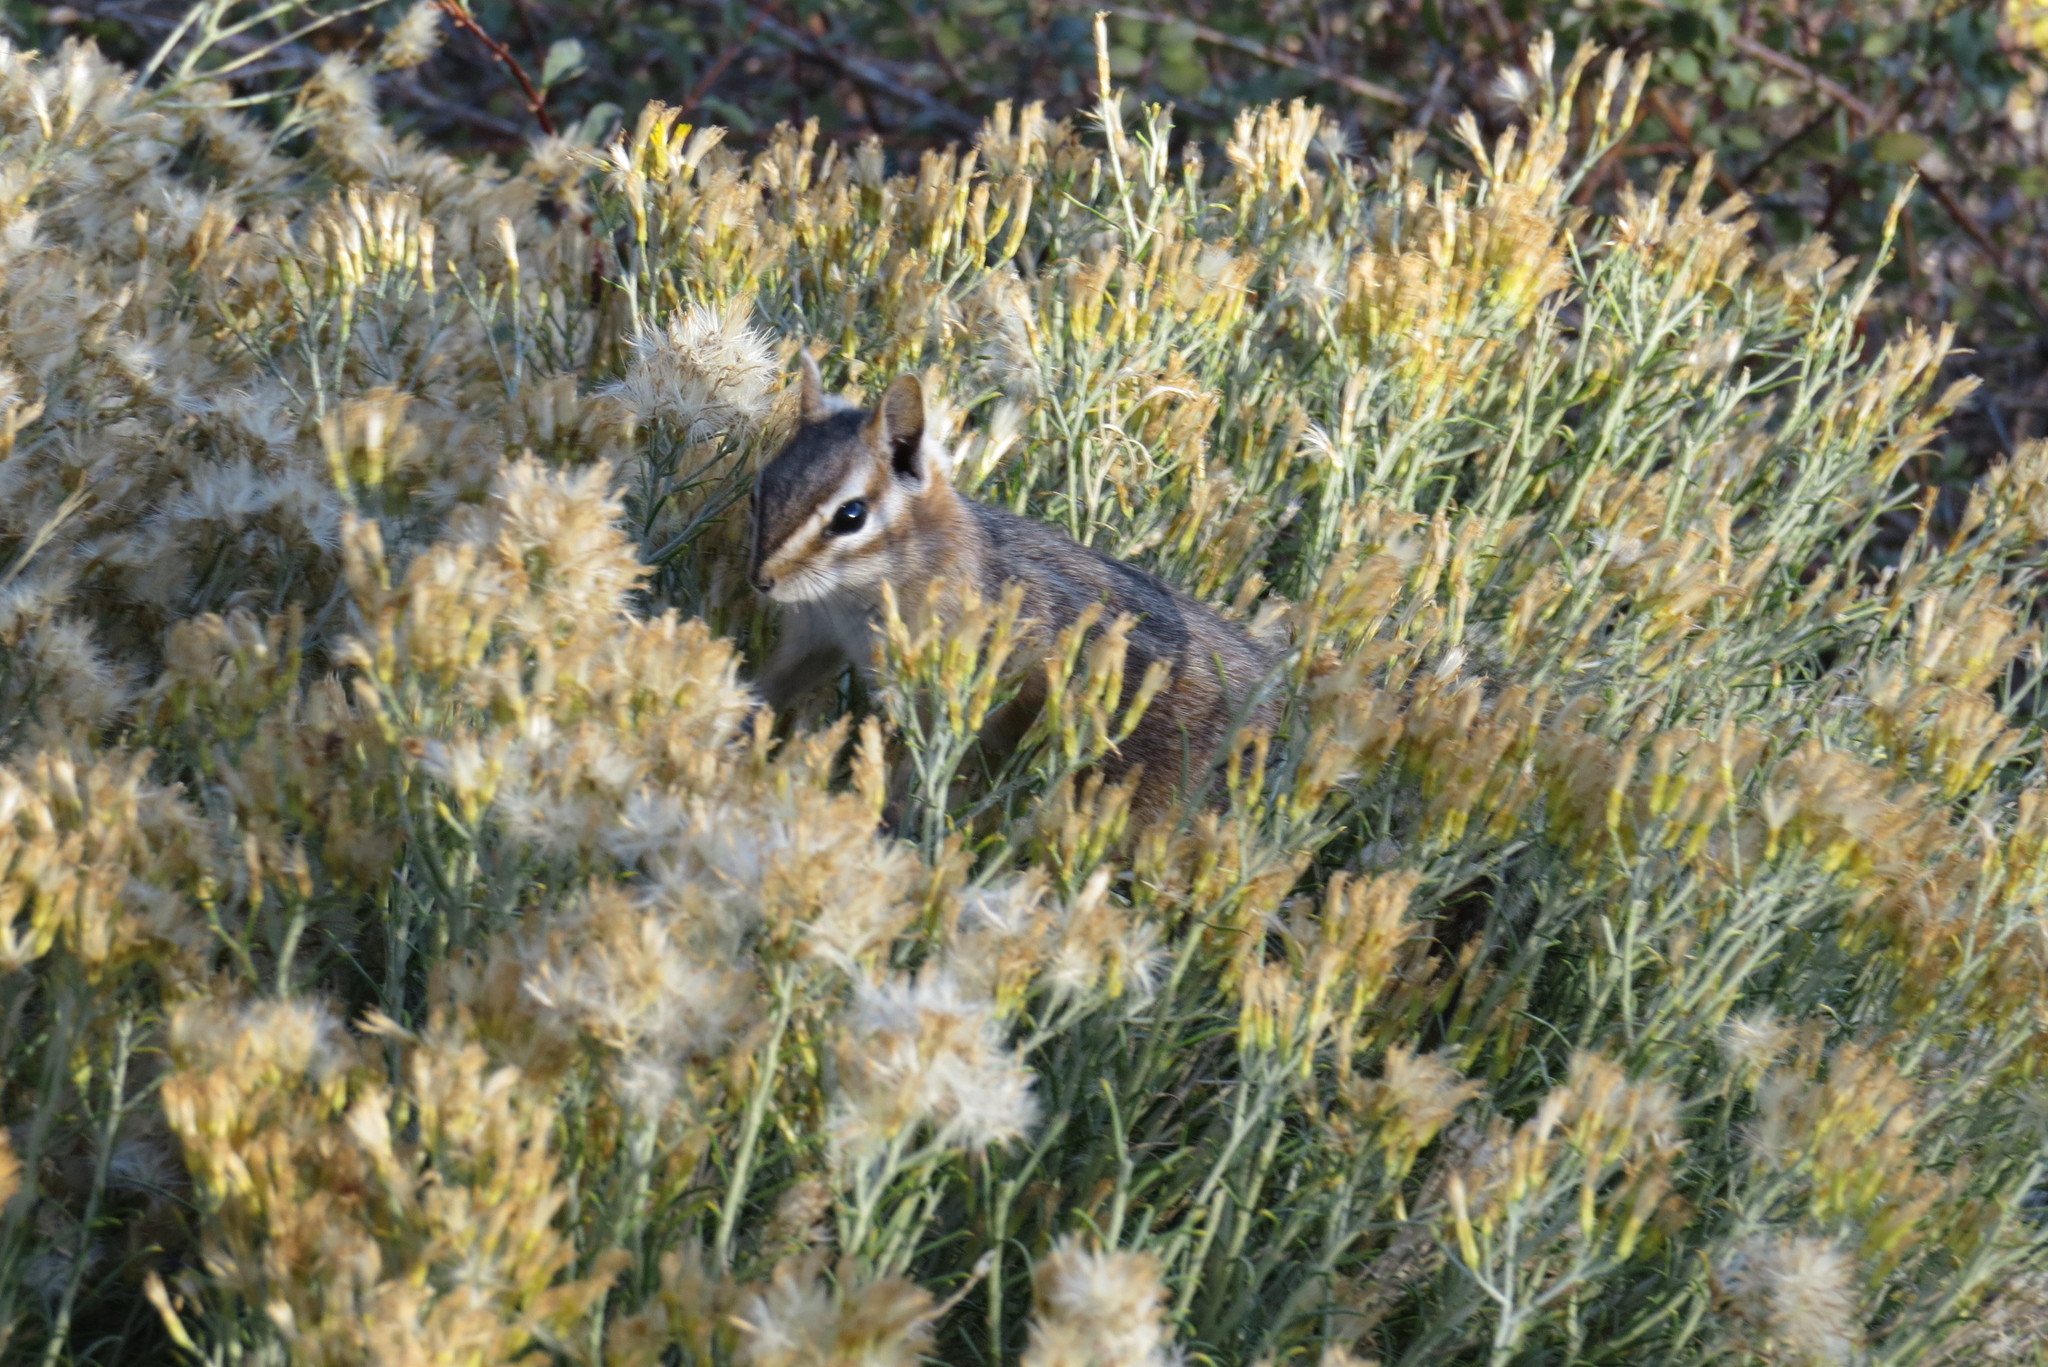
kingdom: Animalia
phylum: Chordata
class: Mammalia
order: Rodentia
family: Sciuridae
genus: Tamias
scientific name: Tamias dorsalis
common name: Cliff chipmunk
